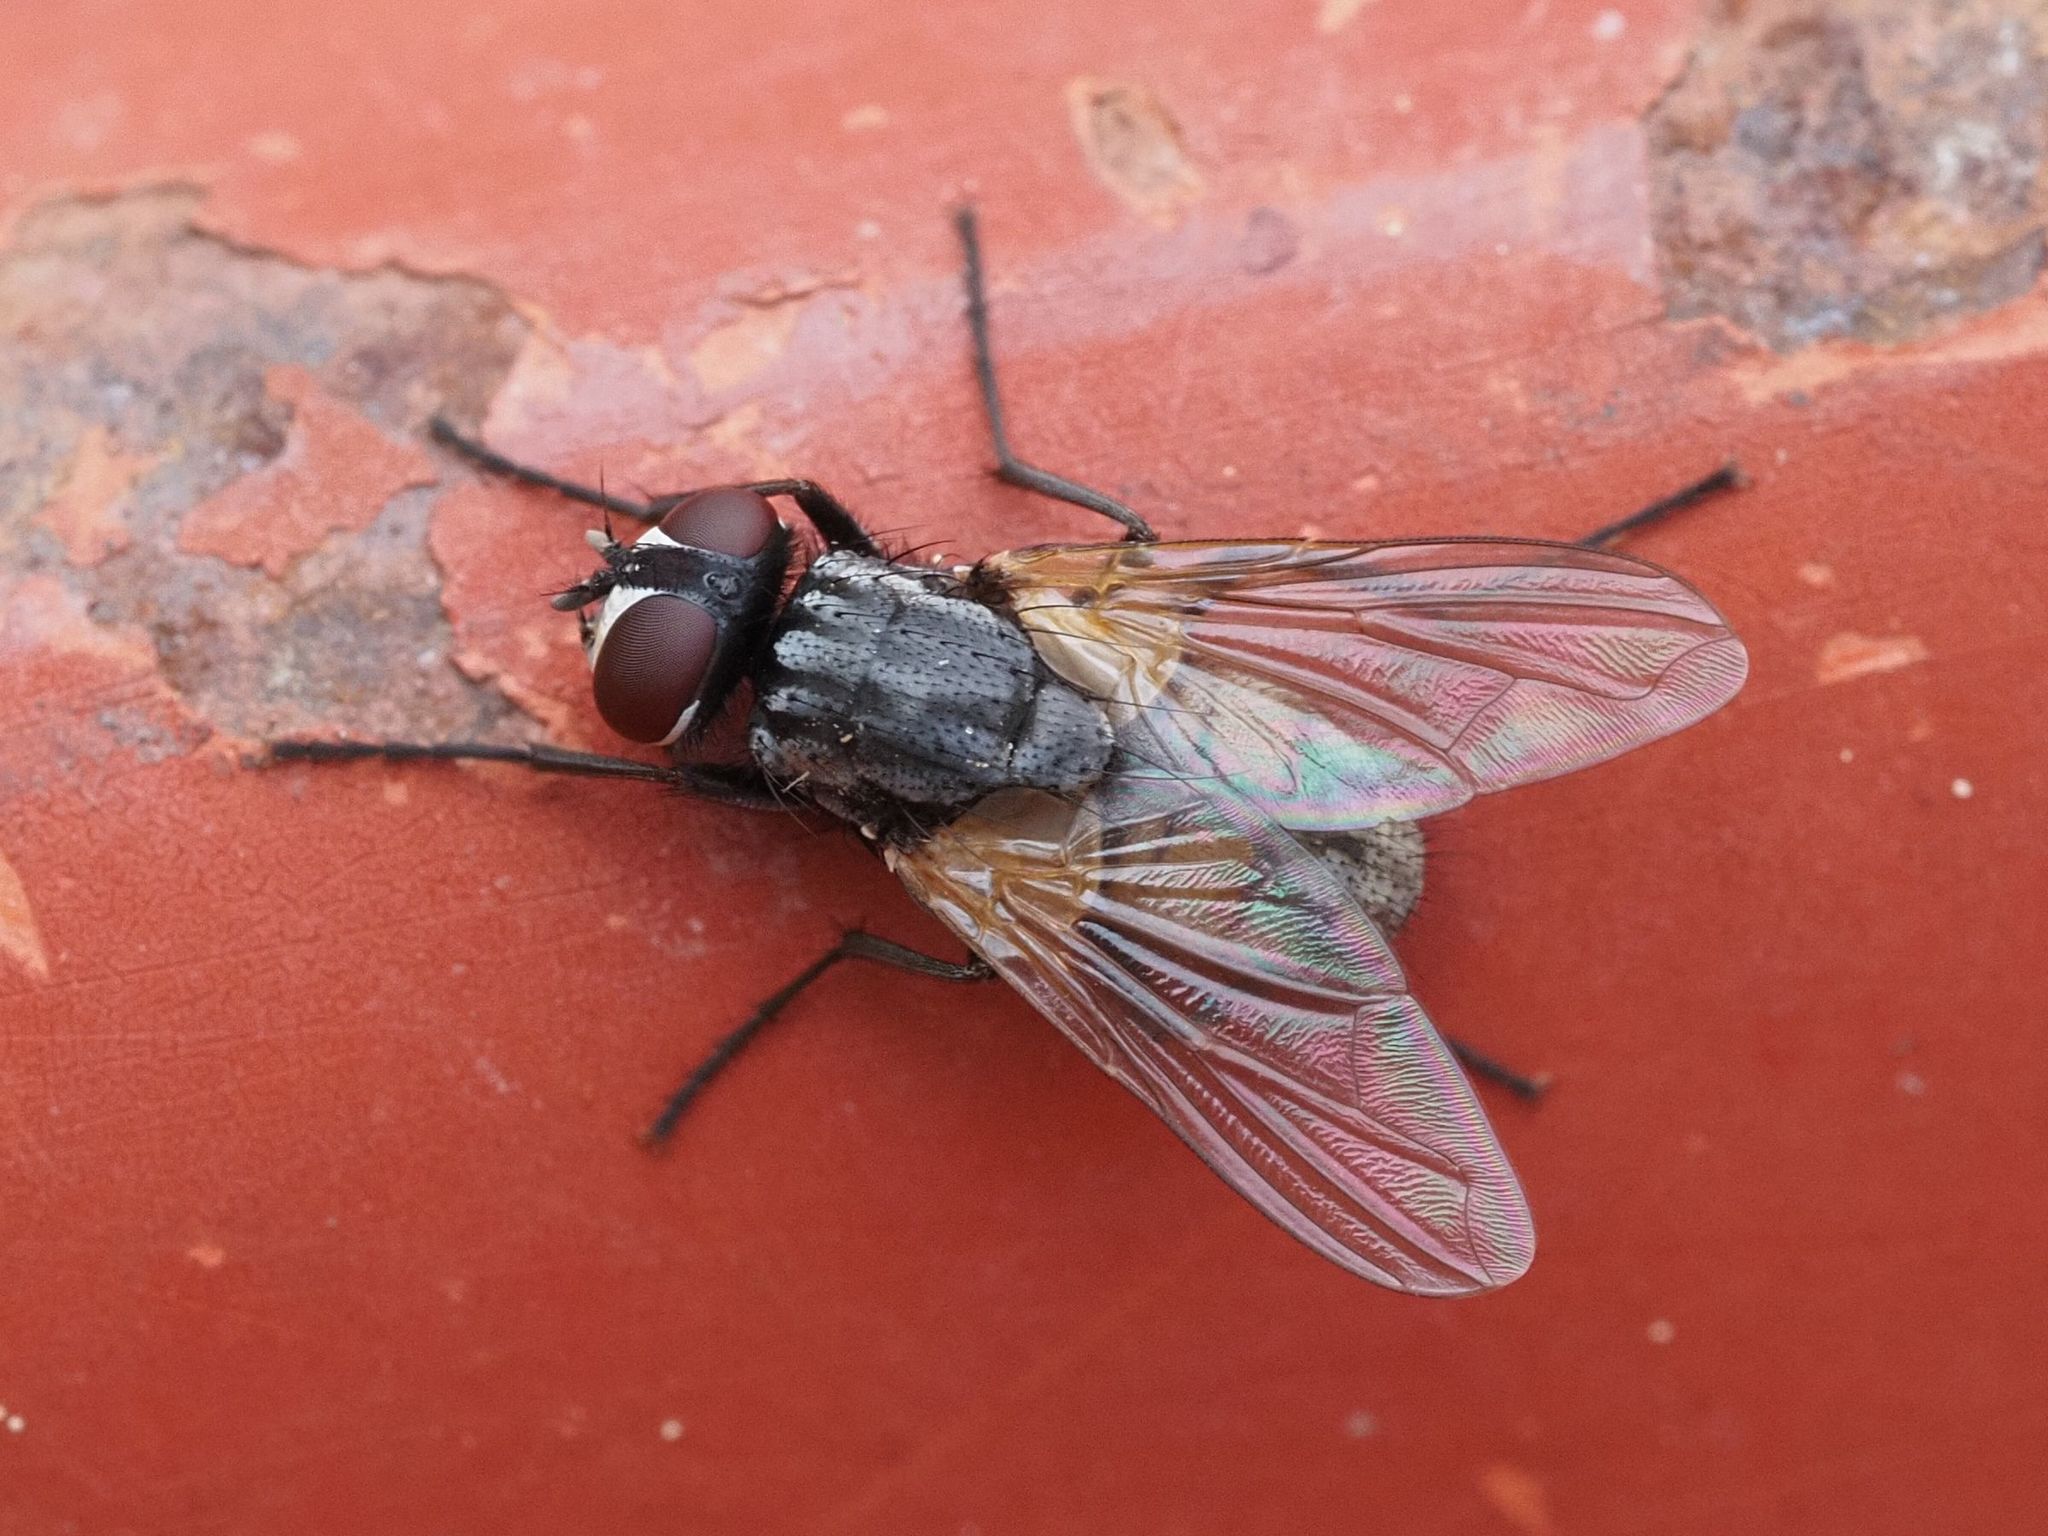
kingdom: Animalia
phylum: Arthropoda
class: Insecta
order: Diptera
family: Muscidae
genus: Musca
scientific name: Musca domestica
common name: House fly
